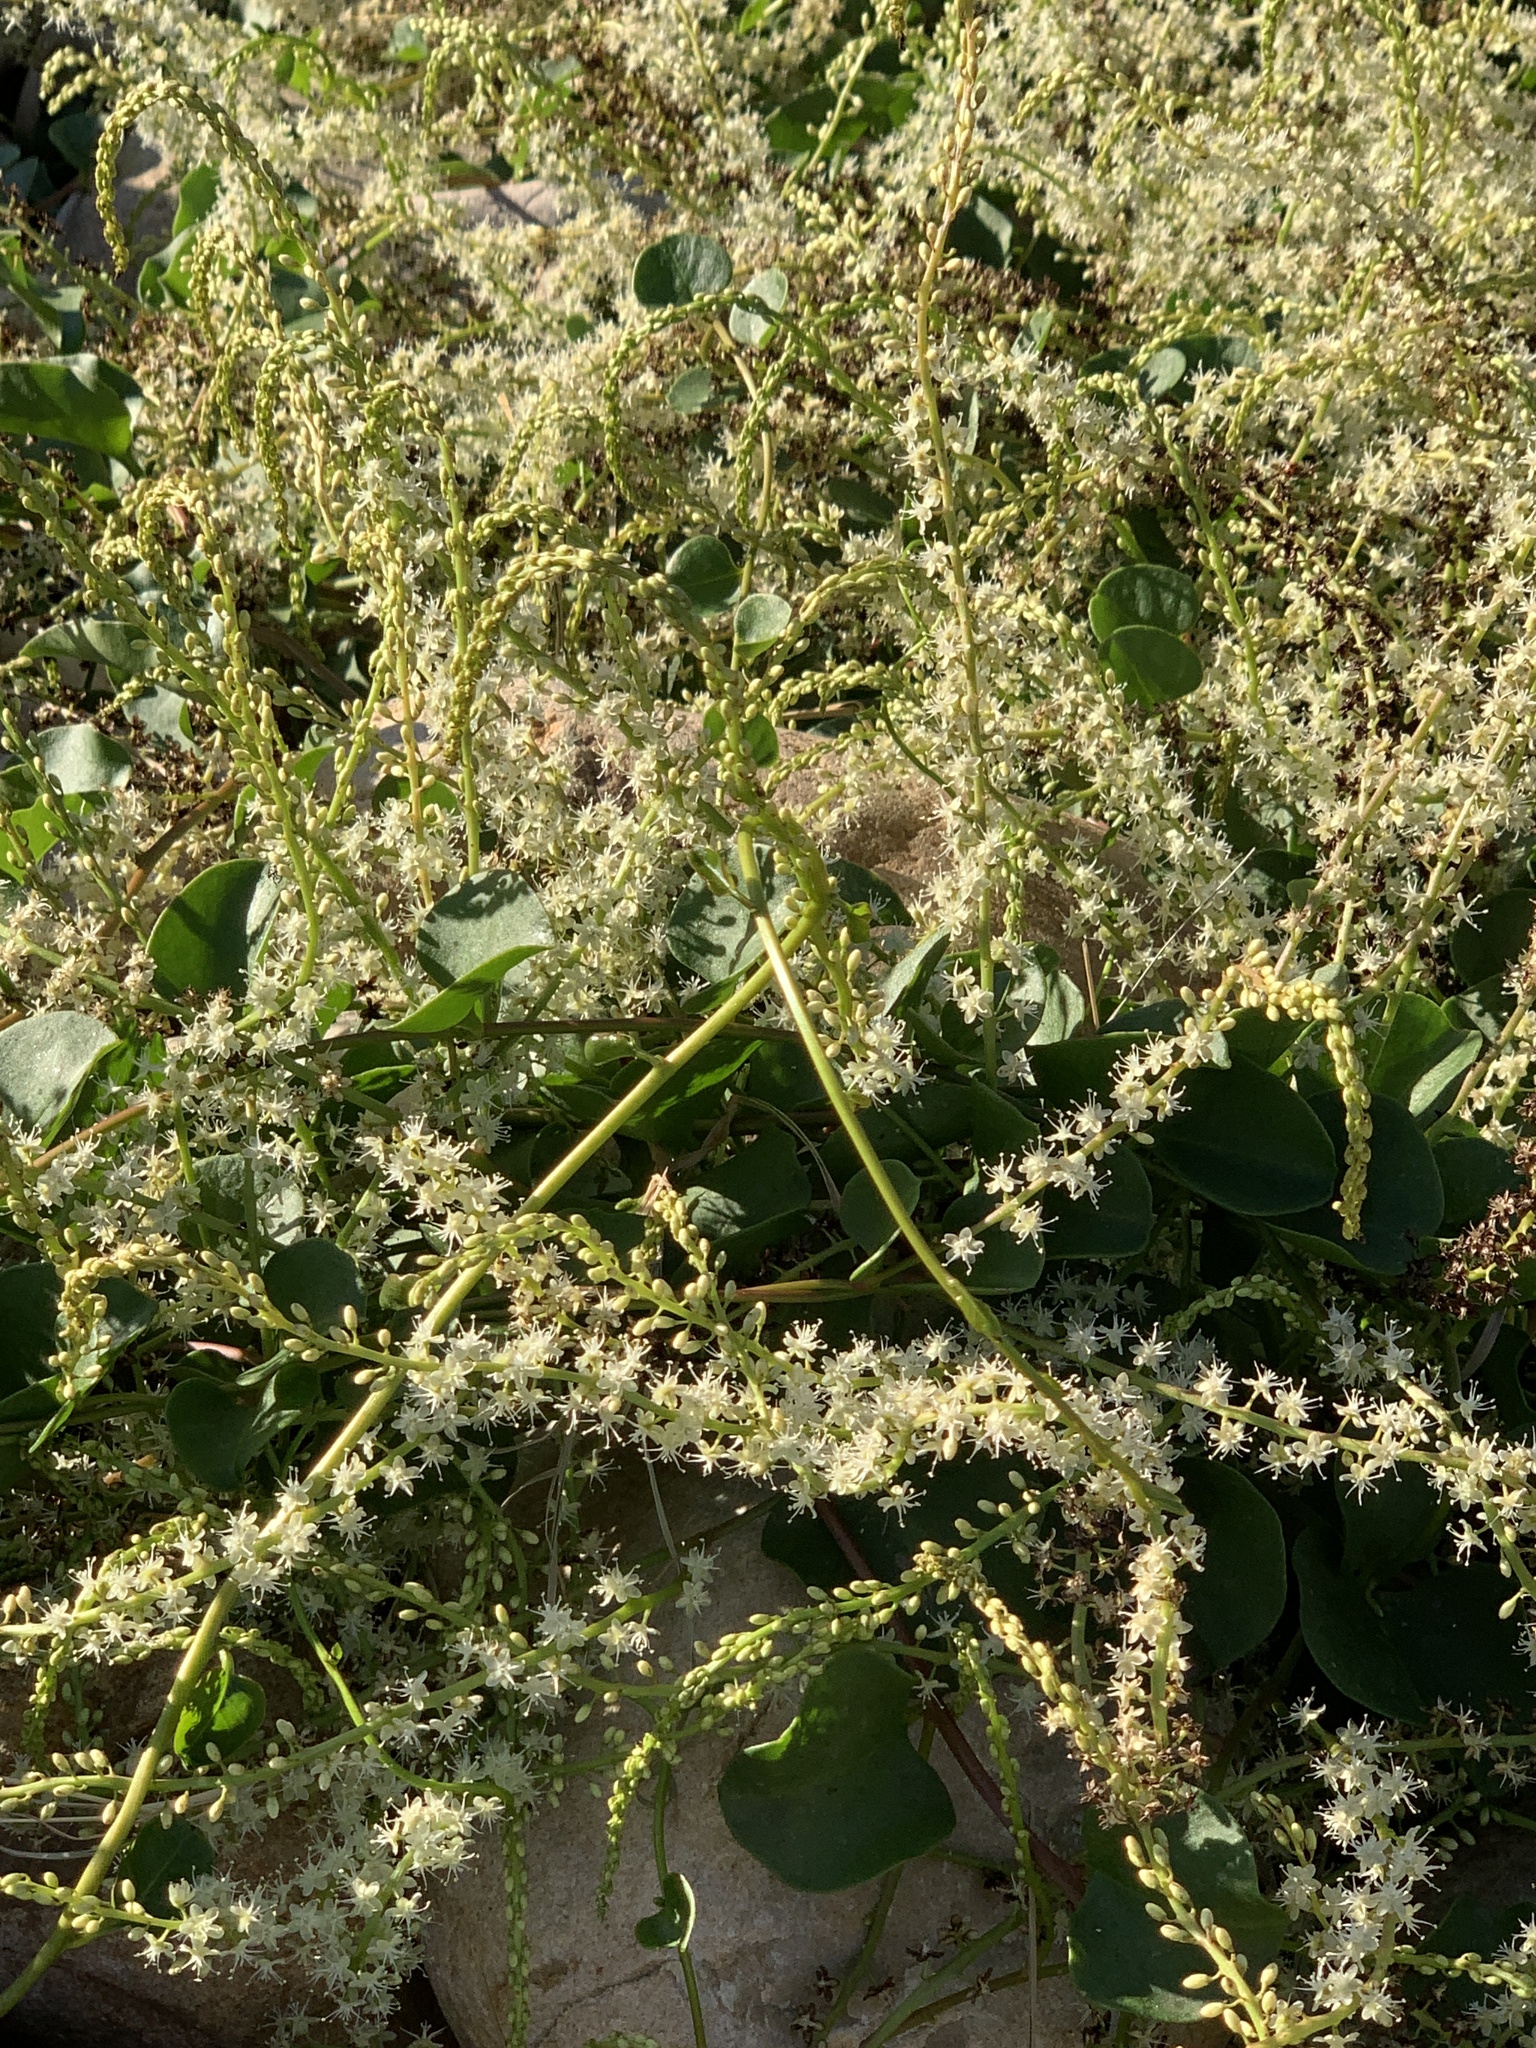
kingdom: Plantae
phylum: Tracheophyta
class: Magnoliopsida
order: Caryophyllales
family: Basellaceae
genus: Anredera
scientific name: Anredera cordifolia
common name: Heartleaf madeiravine
